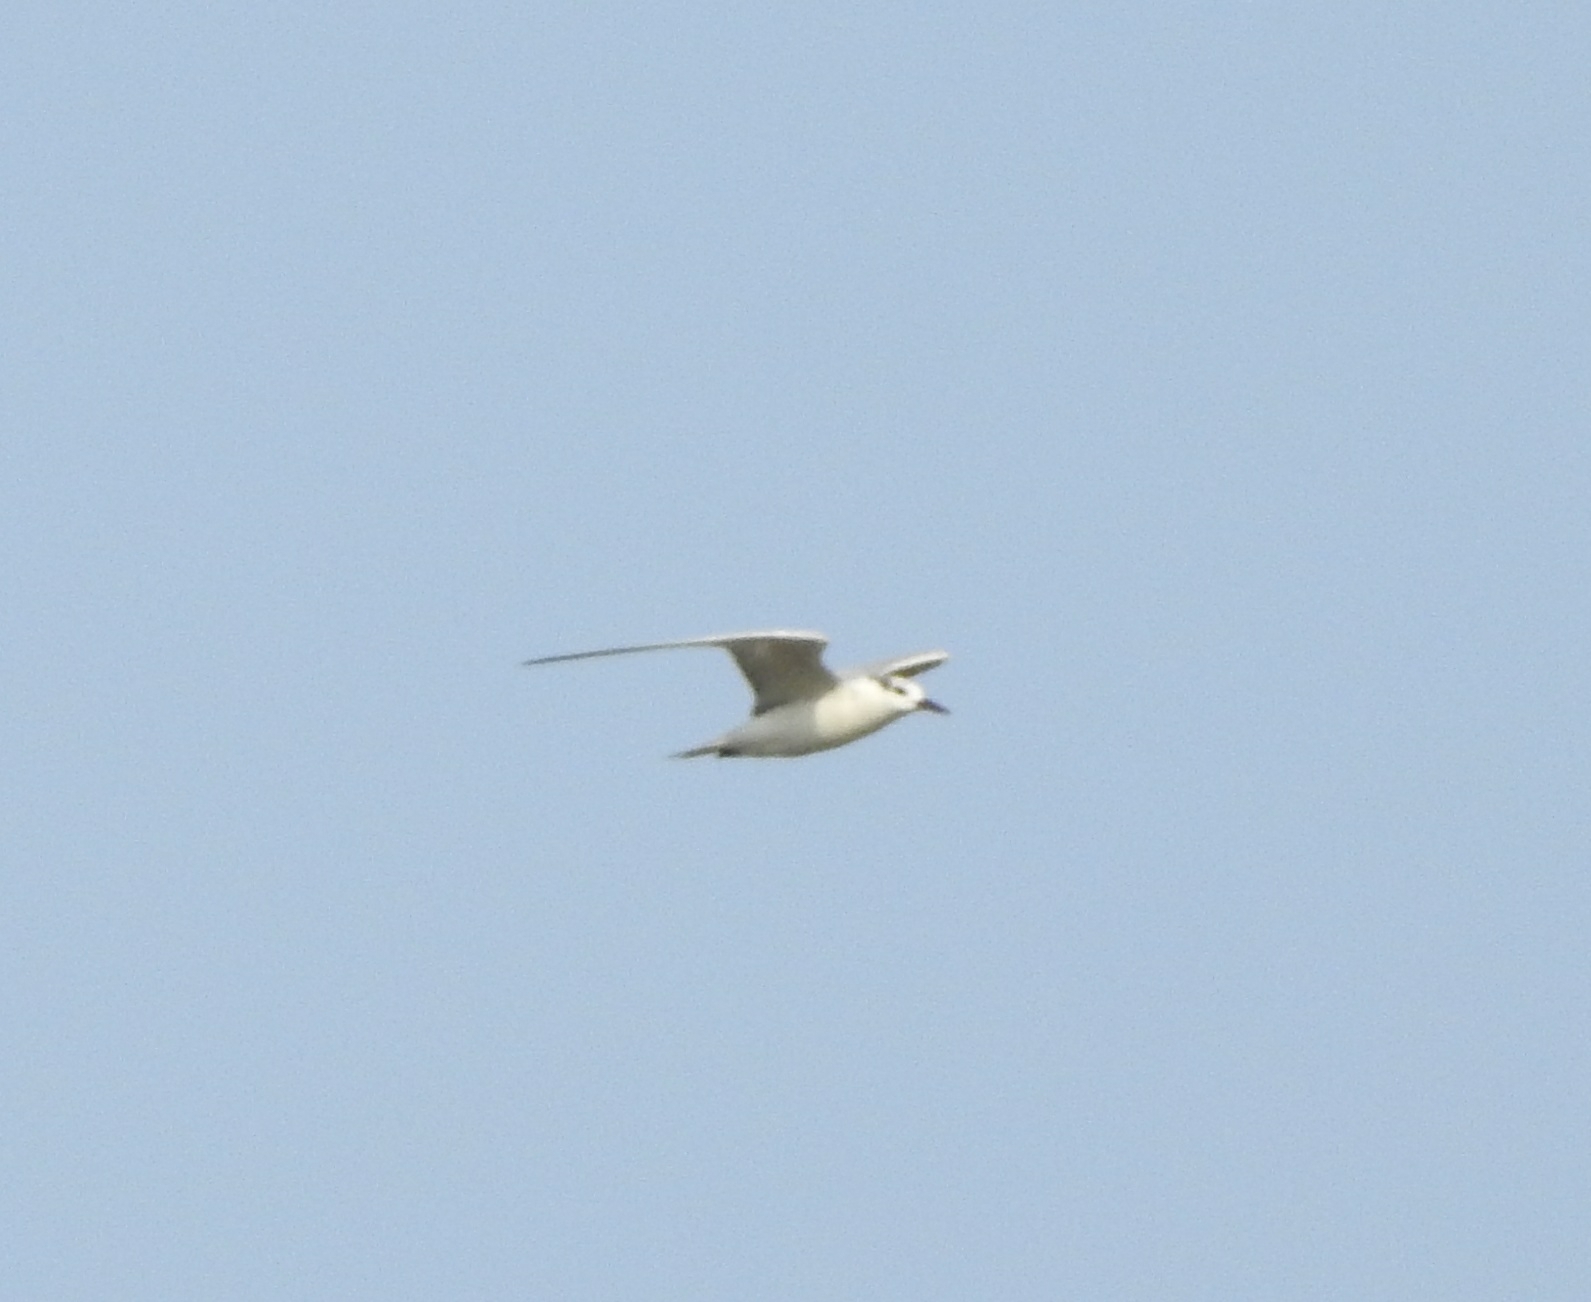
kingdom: Animalia
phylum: Chordata
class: Aves
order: Charadriiformes
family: Laridae
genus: Chlidonias
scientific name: Chlidonias hybrida
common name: Whiskered tern
